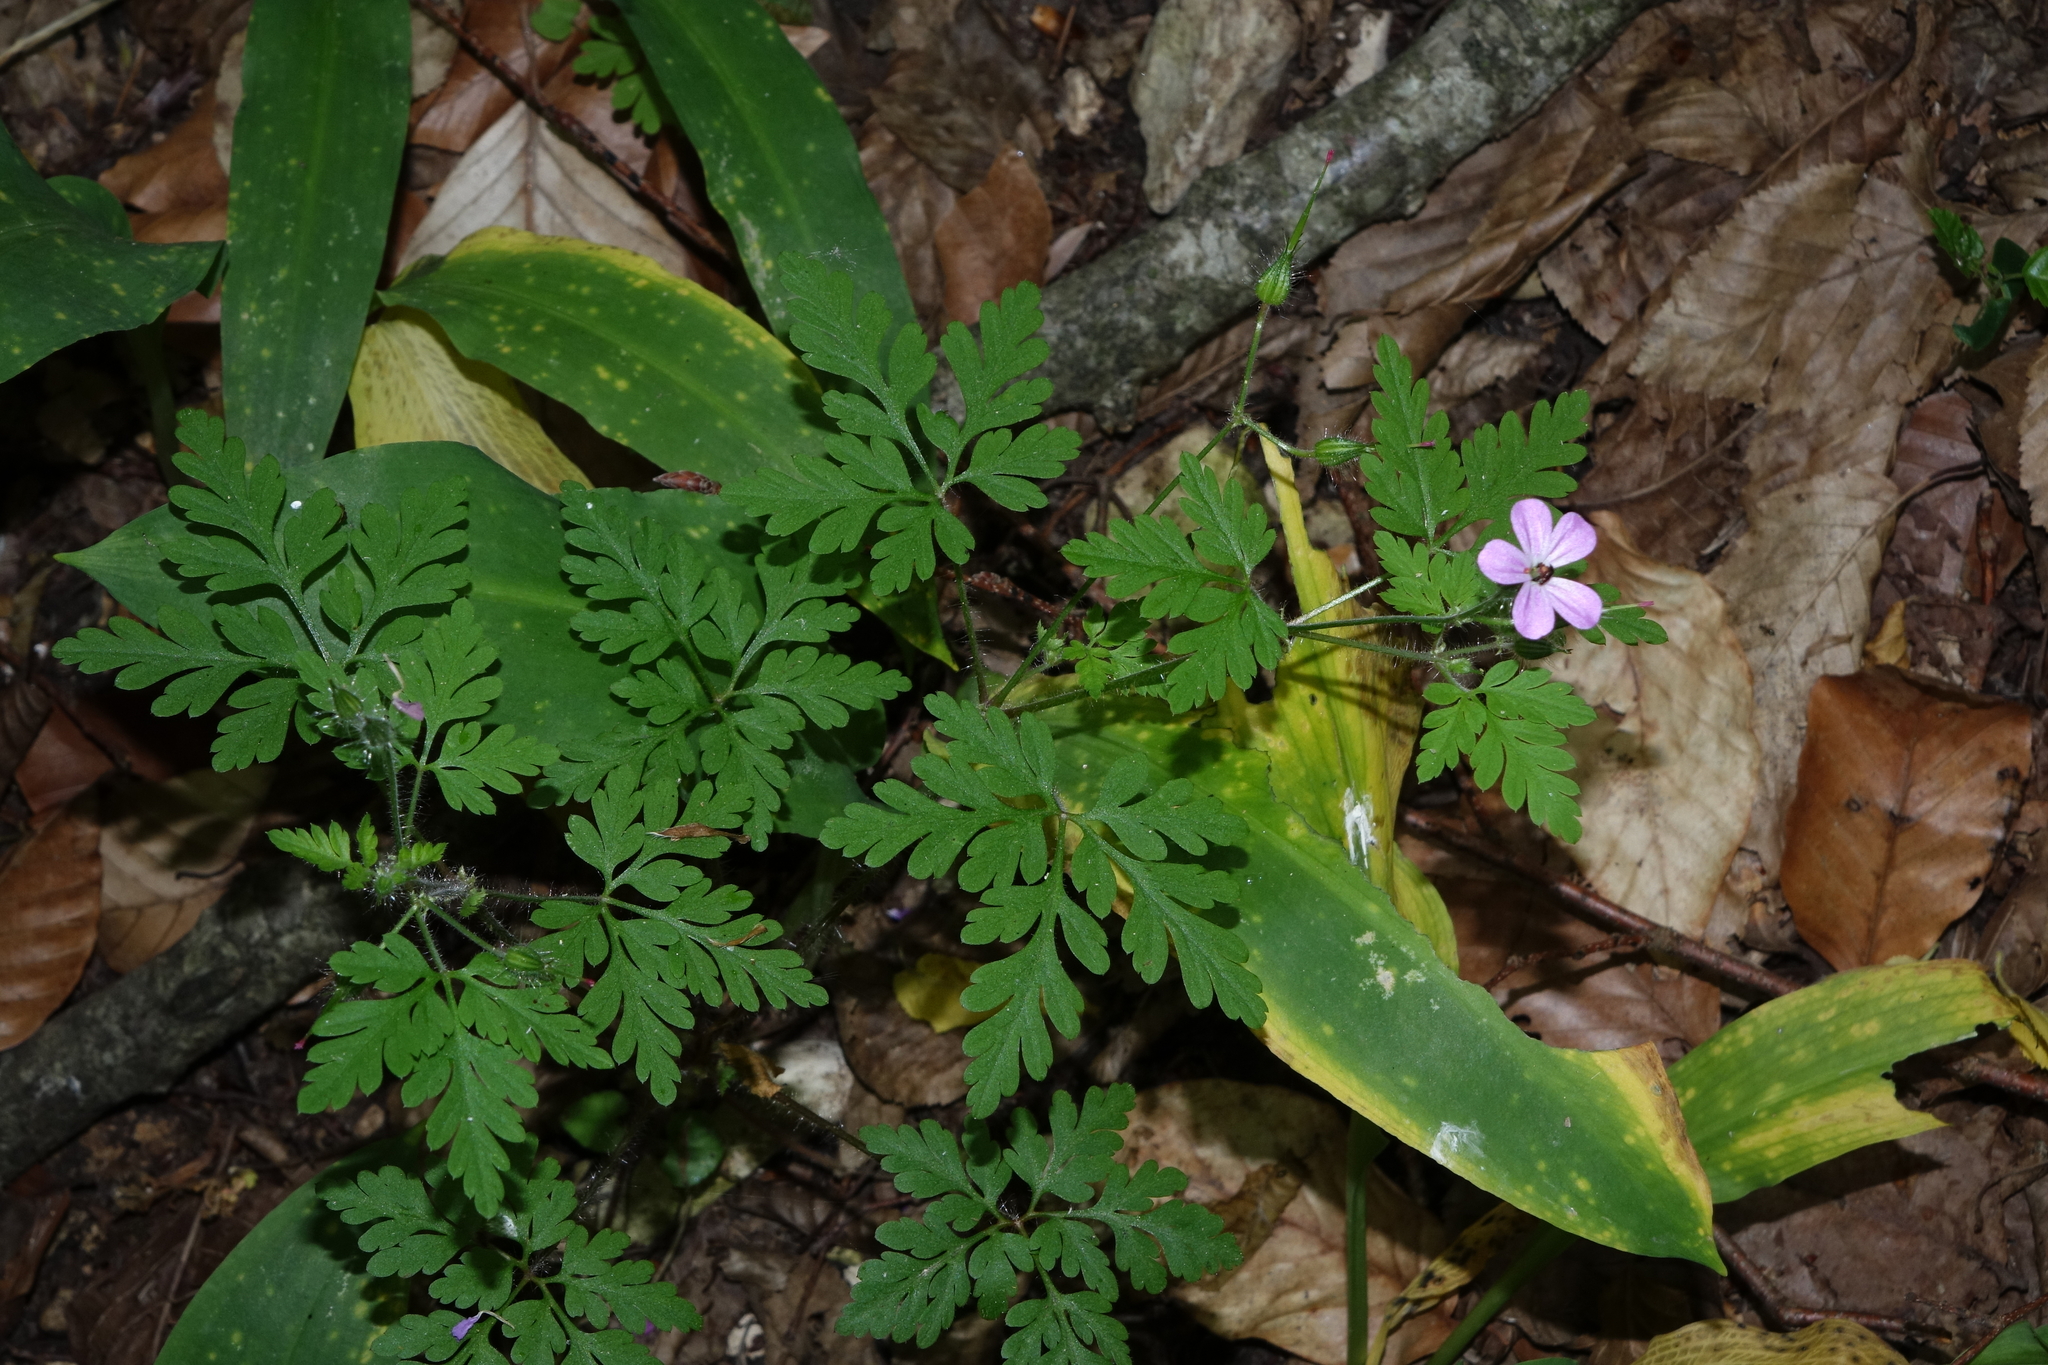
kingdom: Plantae
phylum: Tracheophyta
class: Magnoliopsida
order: Geraniales
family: Geraniaceae
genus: Geranium
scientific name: Geranium robertianum
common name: Herb-robert
